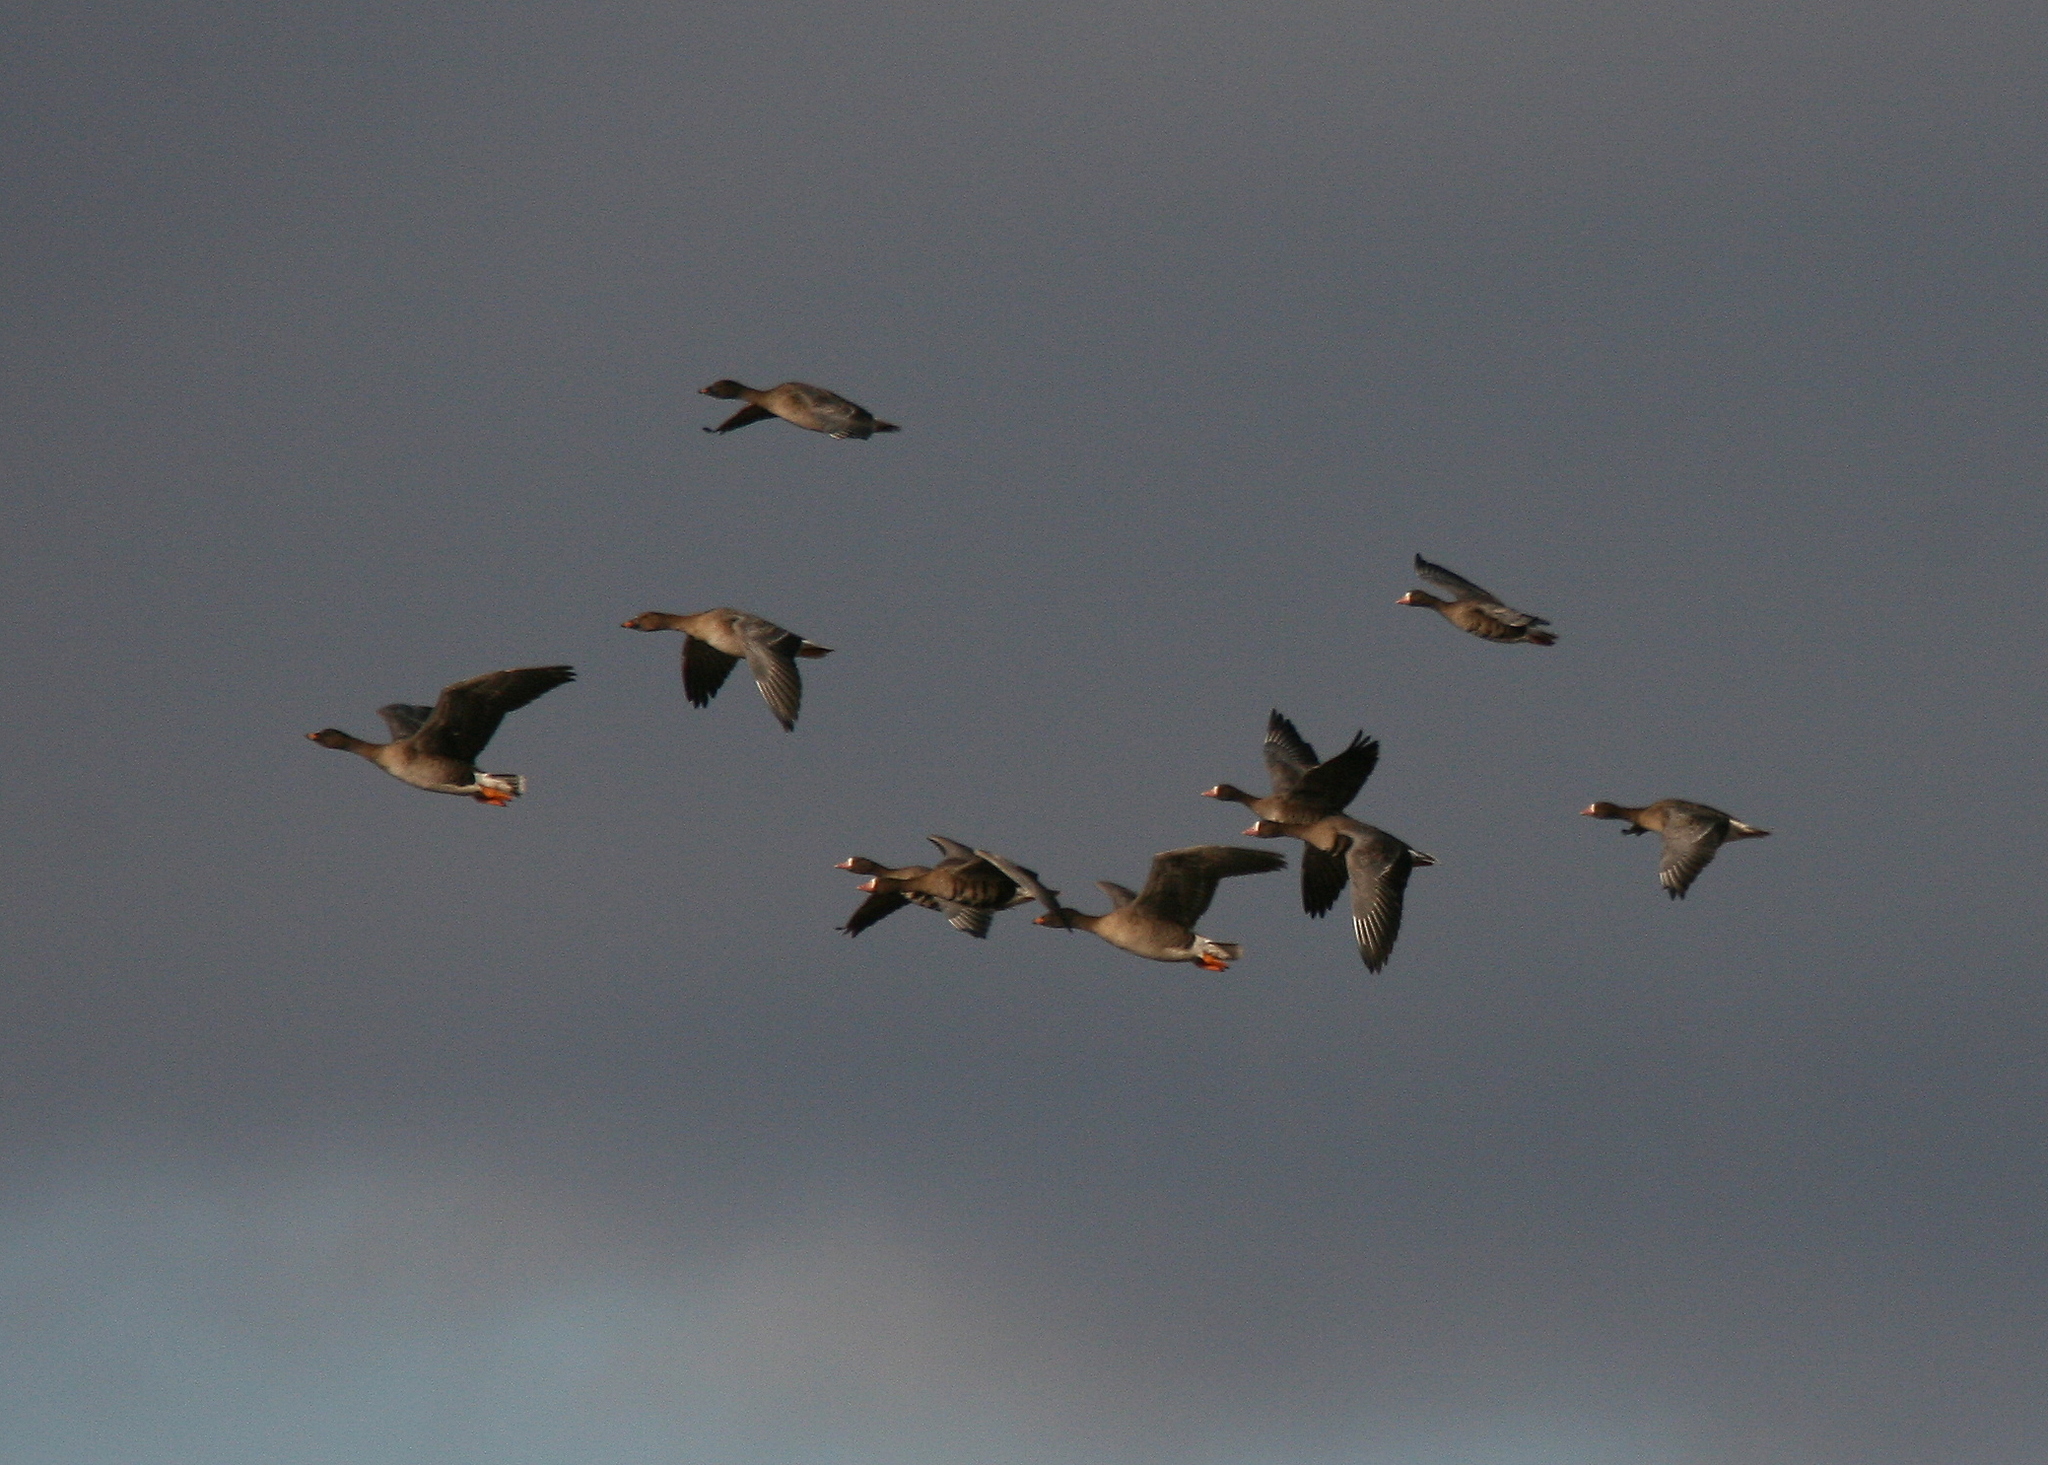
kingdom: Animalia
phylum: Chordata
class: Aves
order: Anseriformes
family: Anatidae
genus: Anser
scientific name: Anser serrirostris
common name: Tundra bean goose
